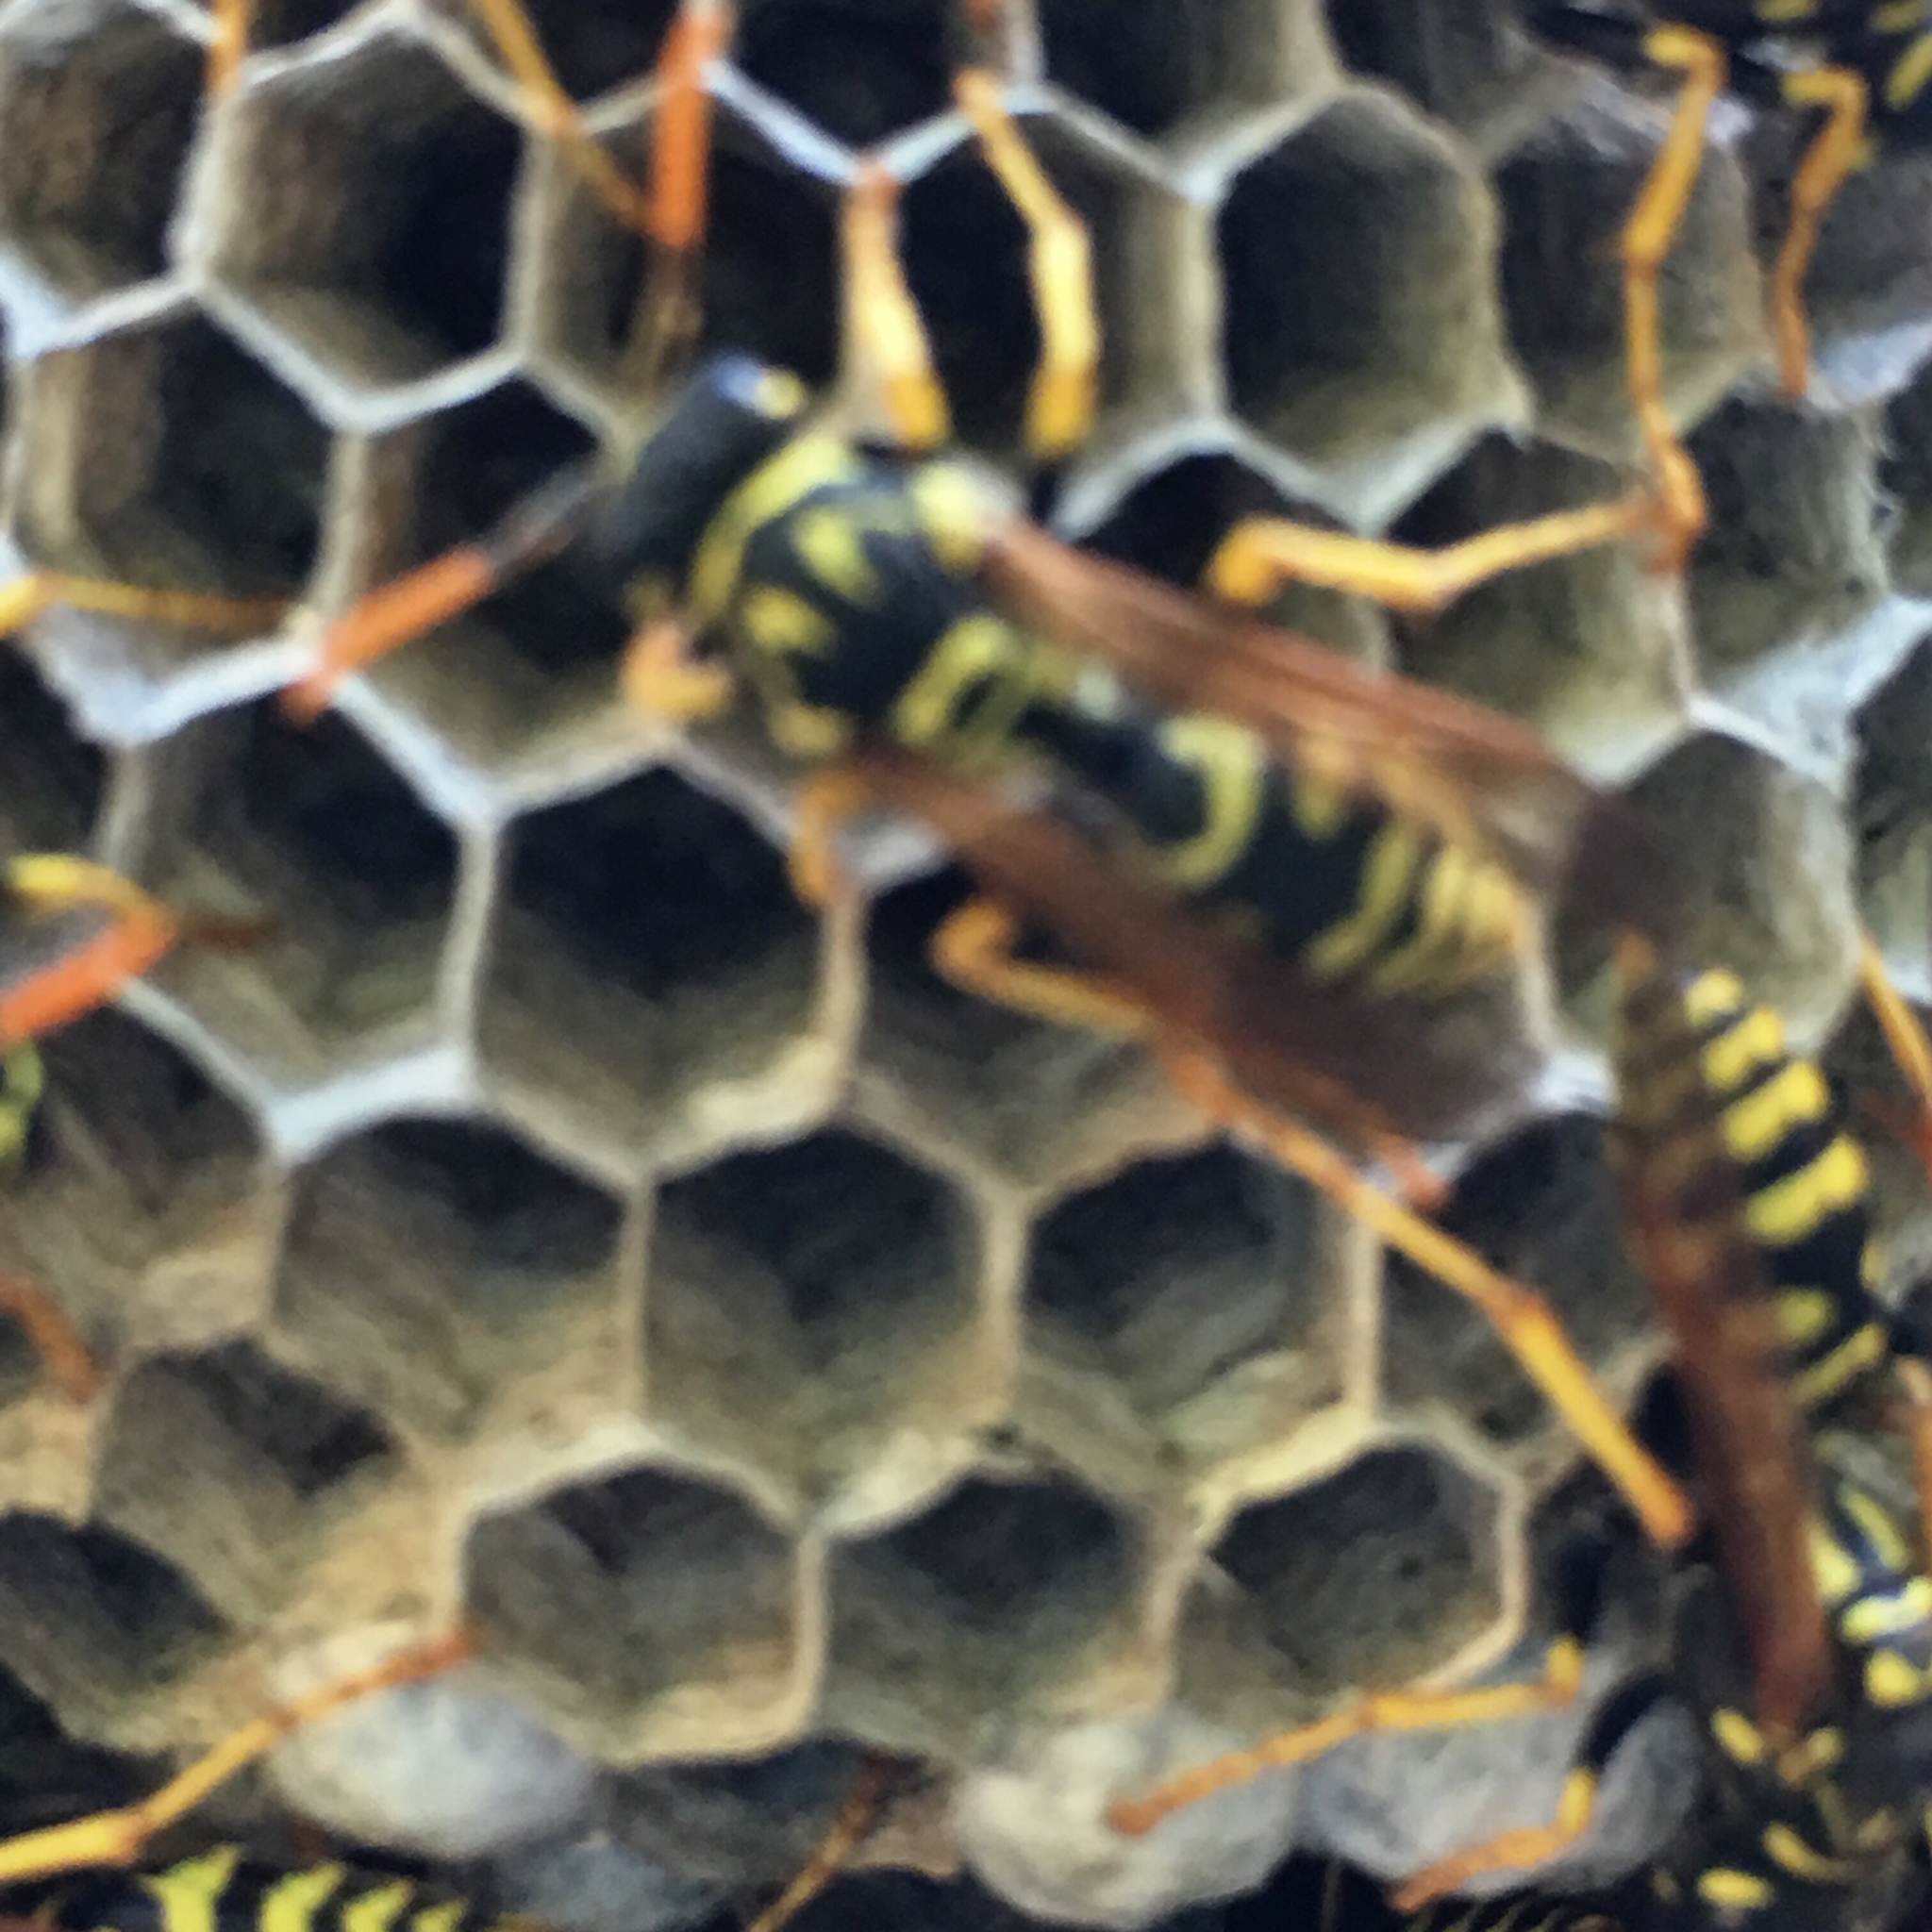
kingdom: Animalia
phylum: Arthropoda
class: Insecta
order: Hymenoptera
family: Eumenidae
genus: Polistes
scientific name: Polistes dominula
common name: Paper wasp
